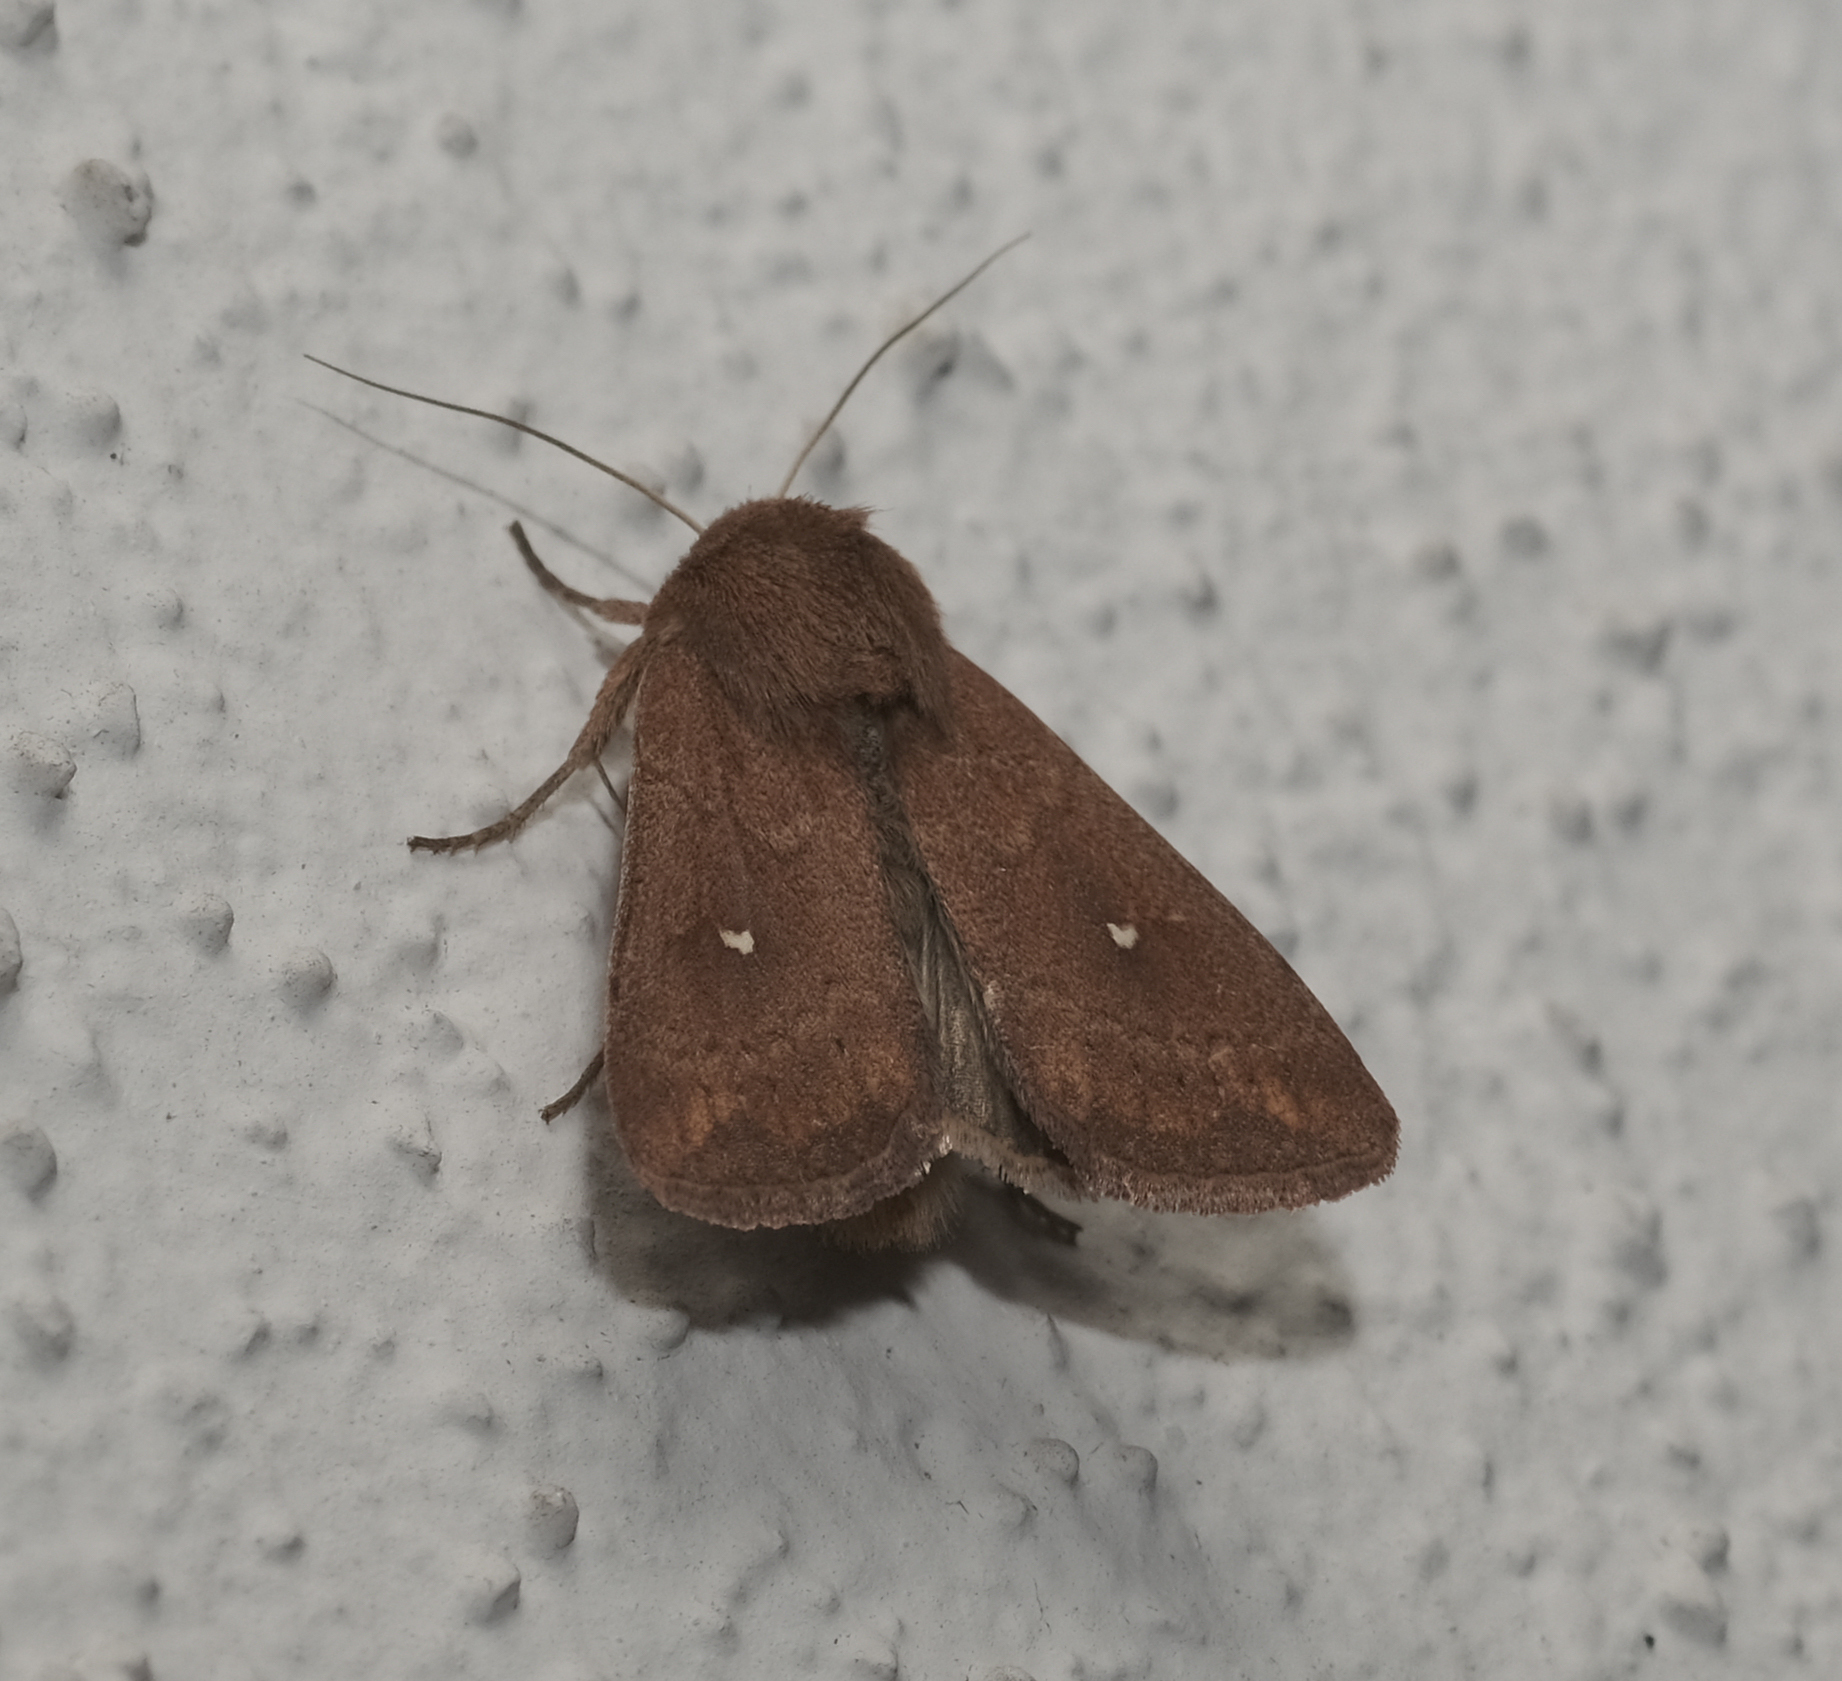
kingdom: Animalia
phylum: Arthropoda
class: Insecta
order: Lepidoptera
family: Noctuidae
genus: Mythimna
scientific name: Mythimna albipuncta
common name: White-point
